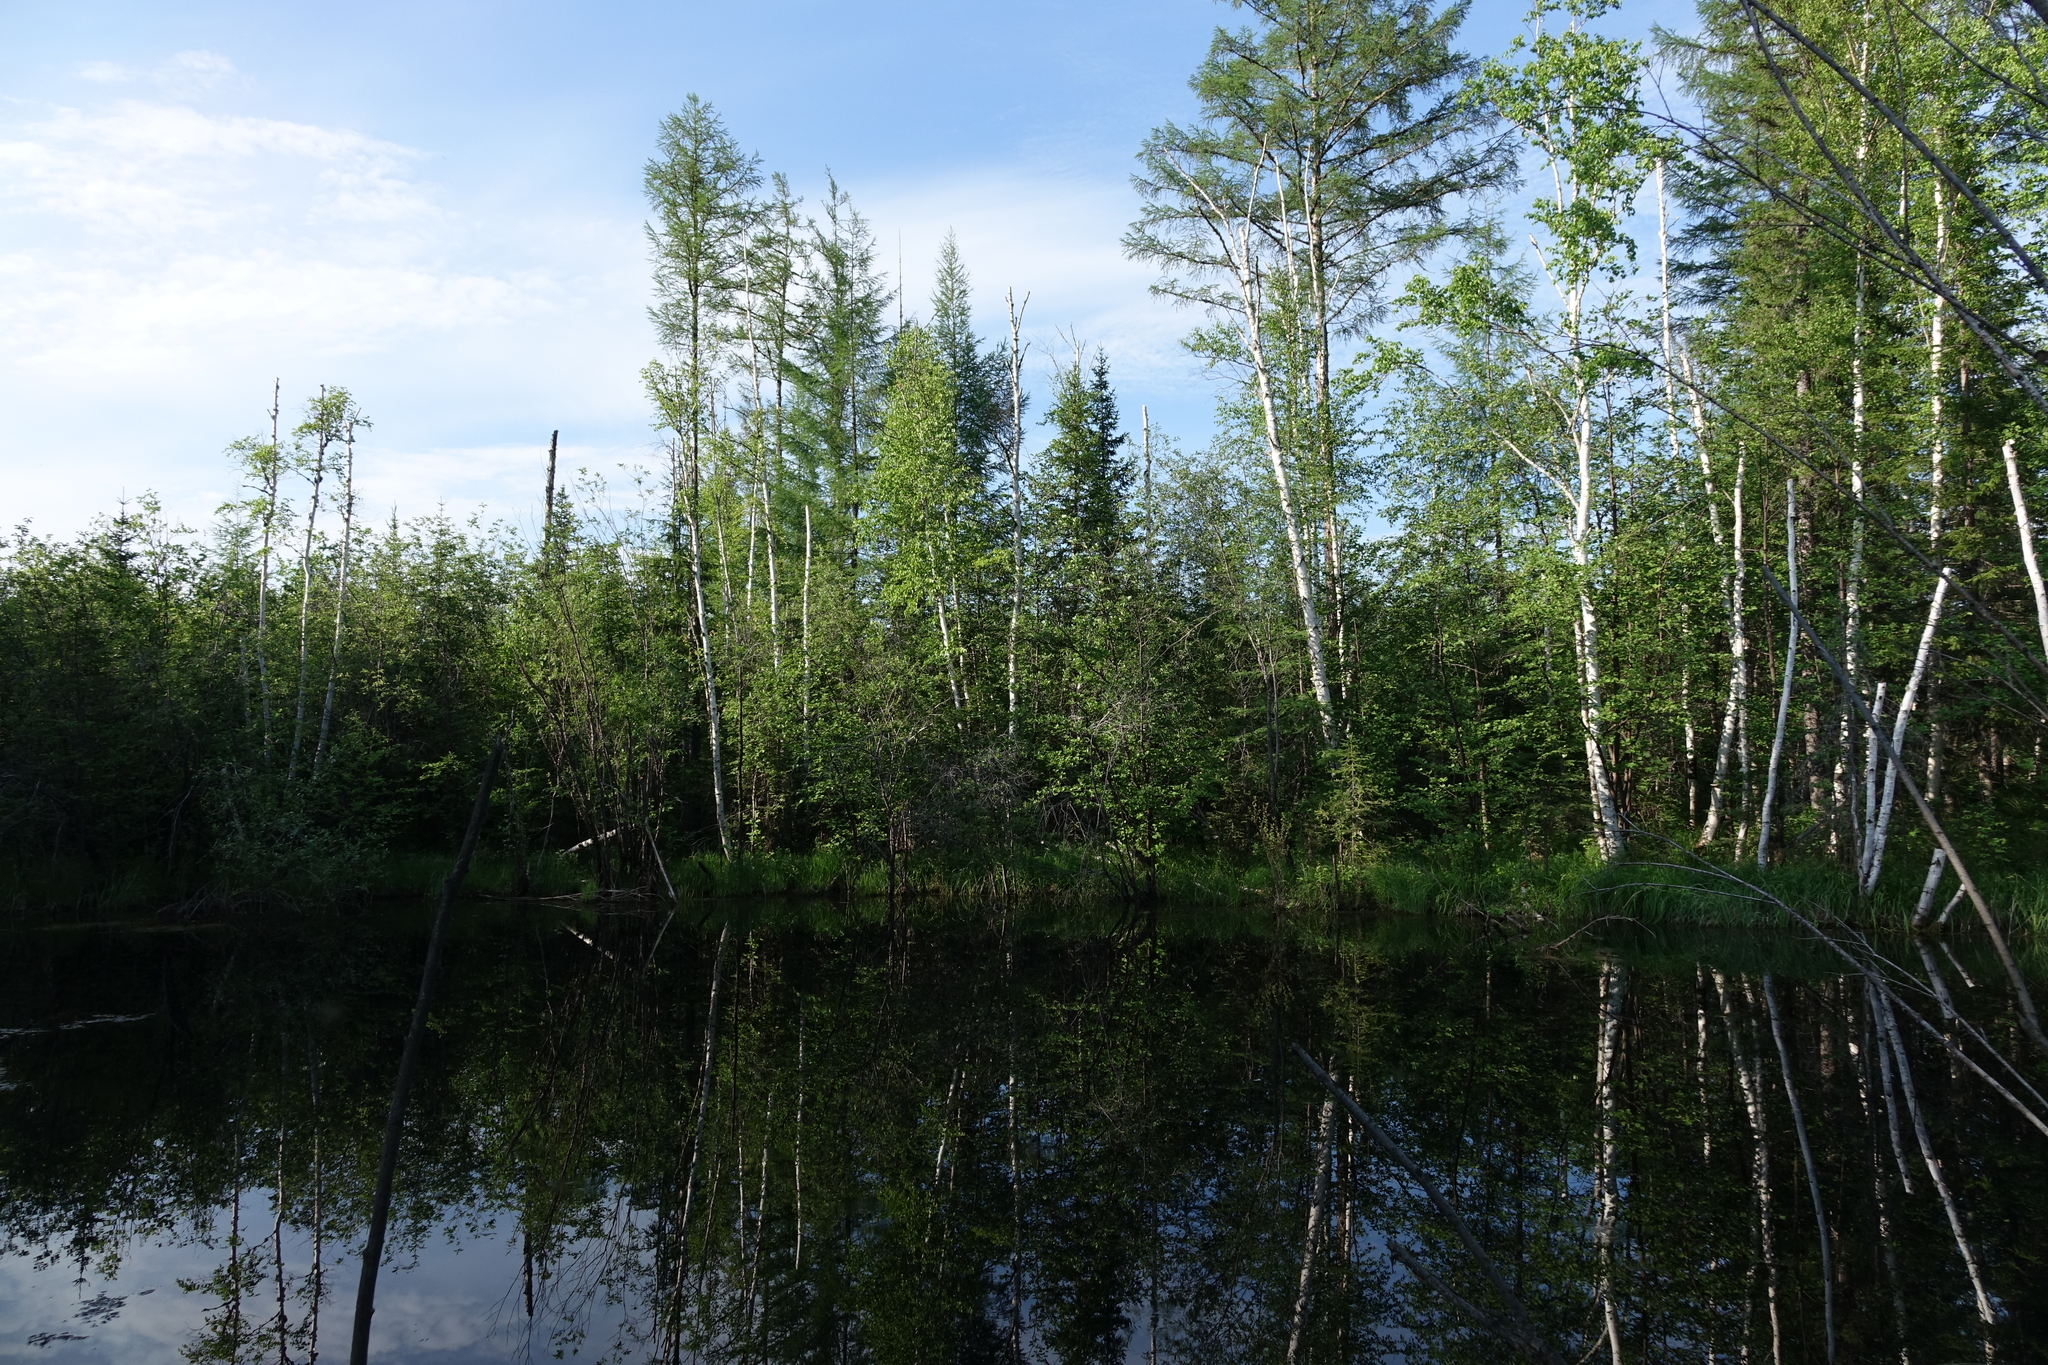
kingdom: Plantae
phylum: Tracheophyta
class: Pinopsida
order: Pinales
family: Pinaceae
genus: Larix
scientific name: Larix gmelinii
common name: Dahurian larch
